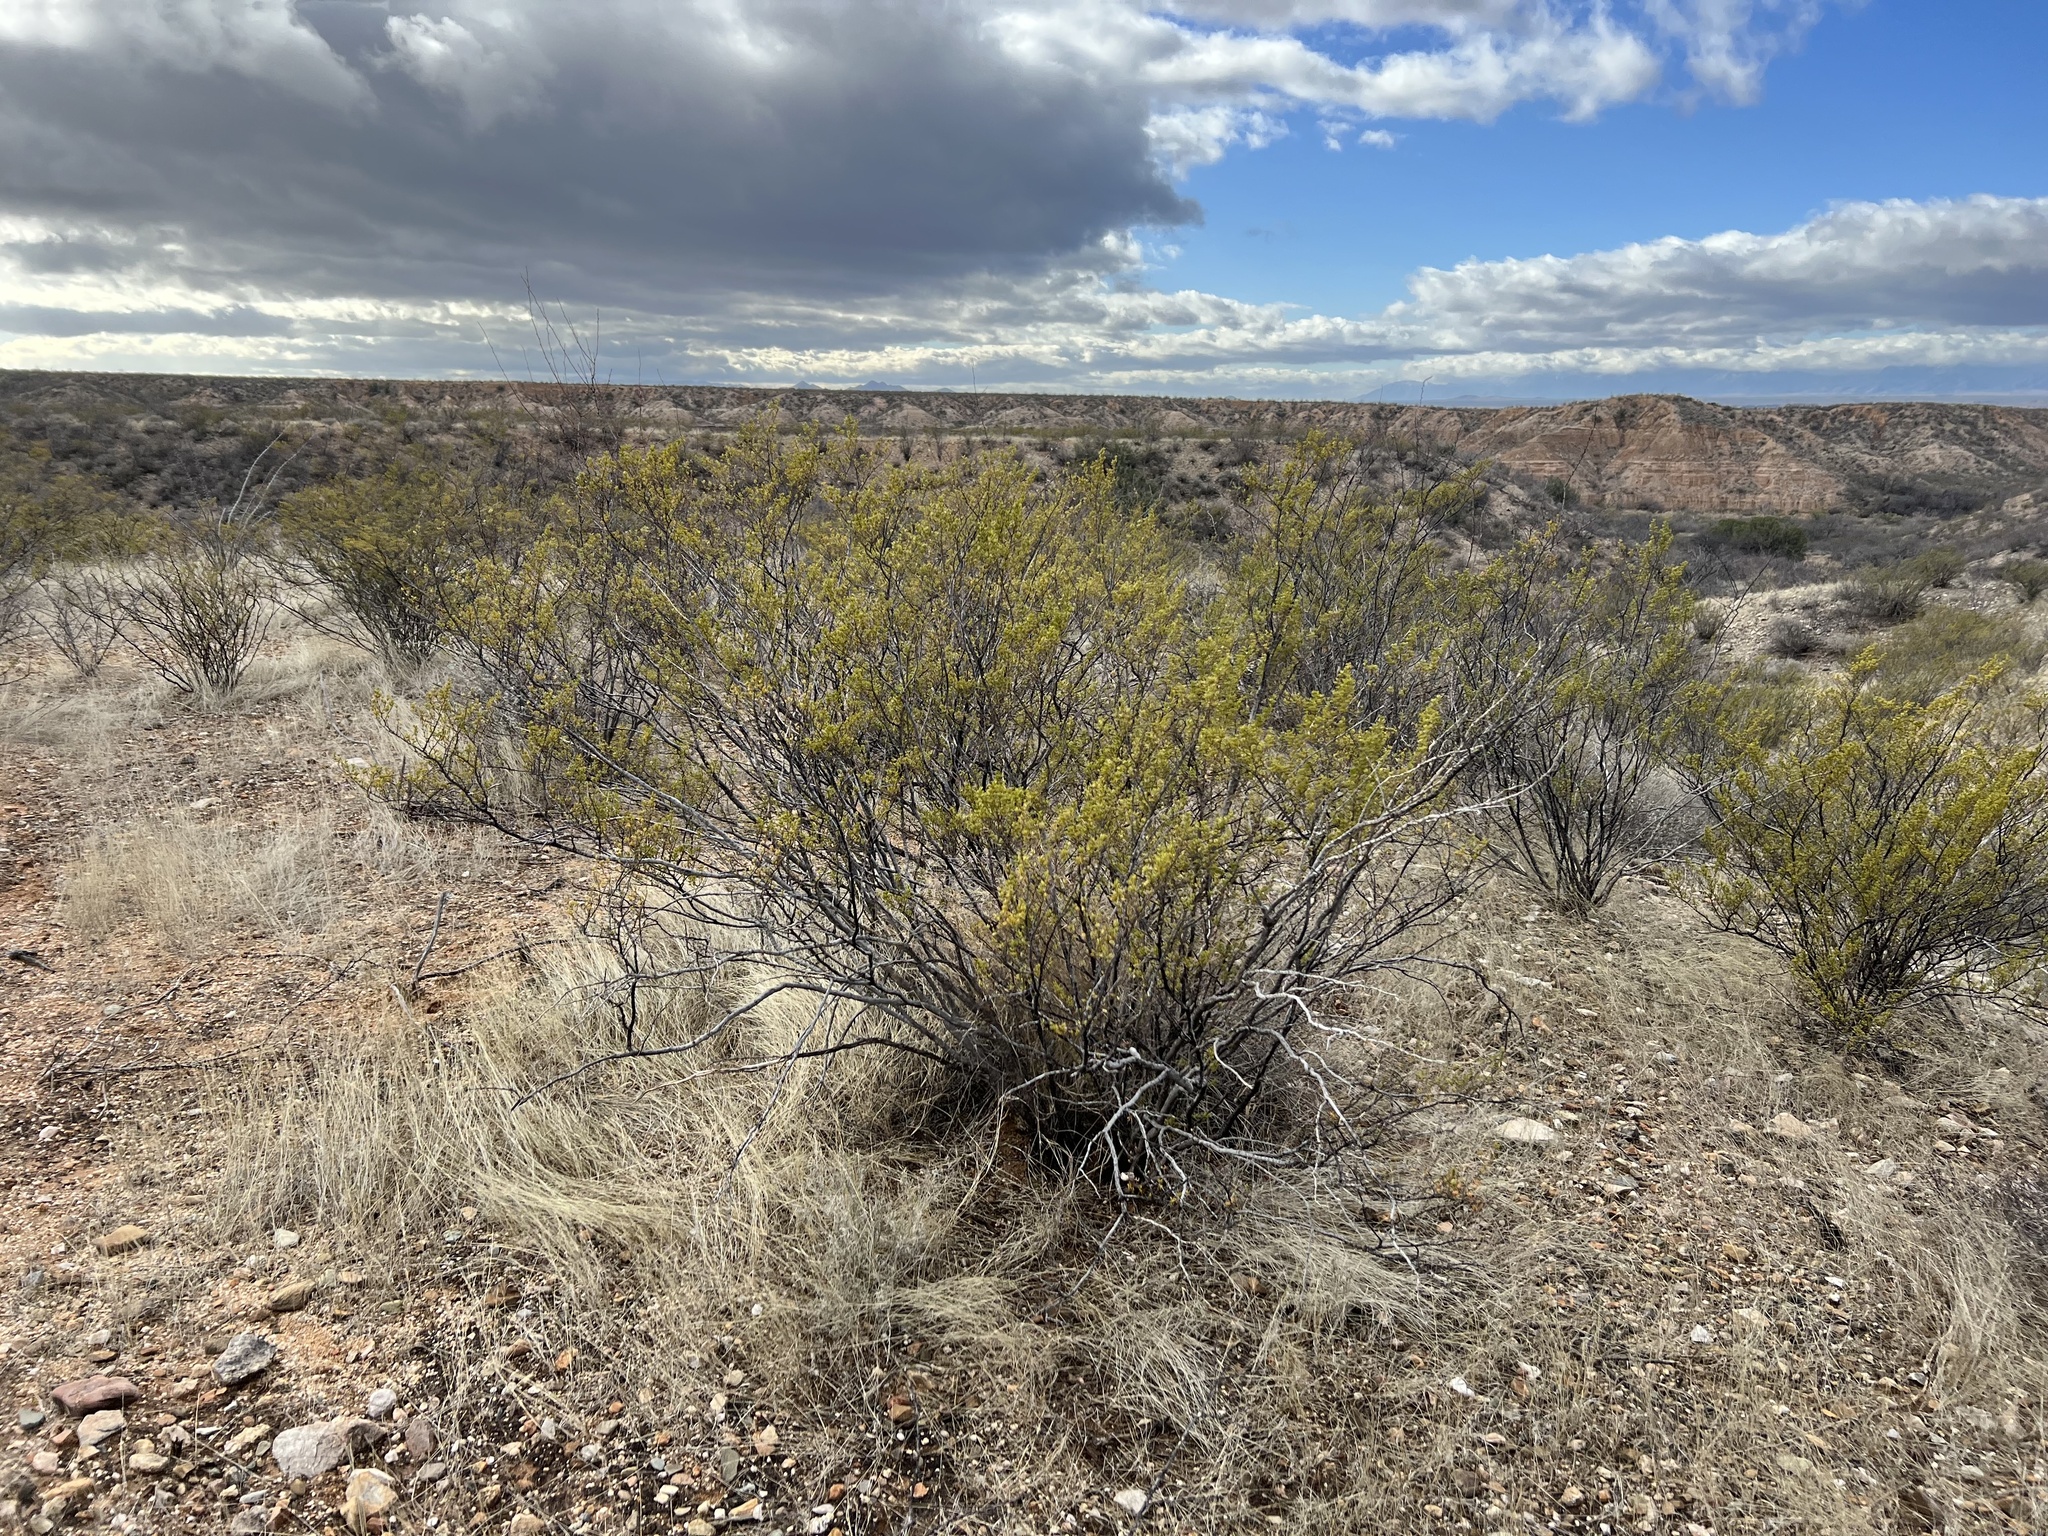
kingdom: Plantae
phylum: Tracheophyta
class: Magnoliopsida
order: Zygophyllales
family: Zygophyllaceae
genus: Larrea
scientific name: Larrea tridentata
